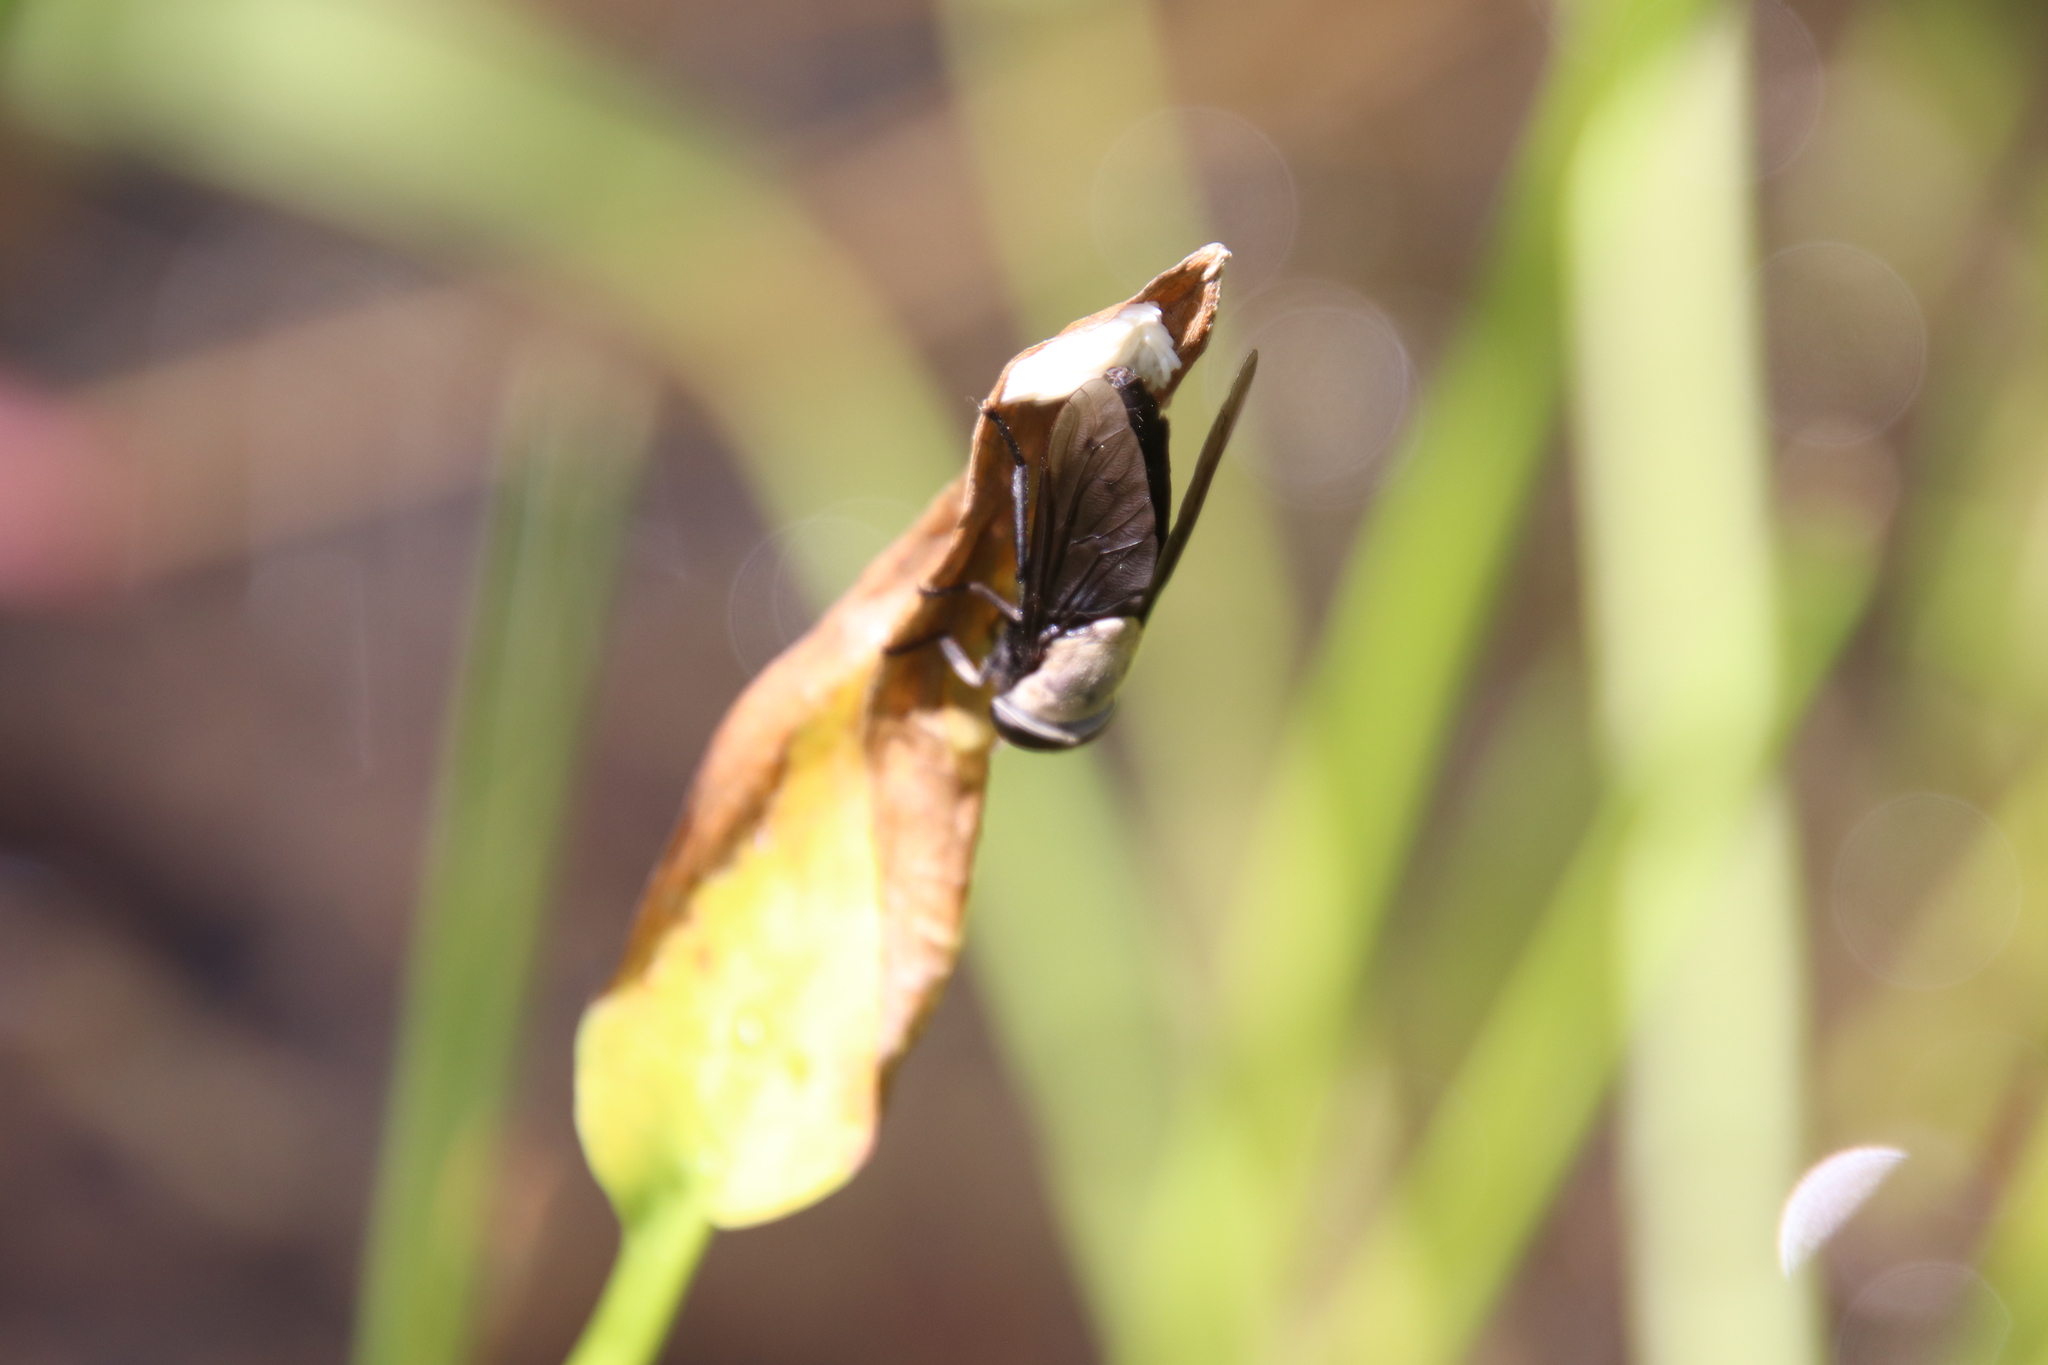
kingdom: Animalia
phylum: Arthropoda
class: Insecta
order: Diptera
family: Tabanidae
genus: Tabanus
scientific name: Tabanus punctifer
